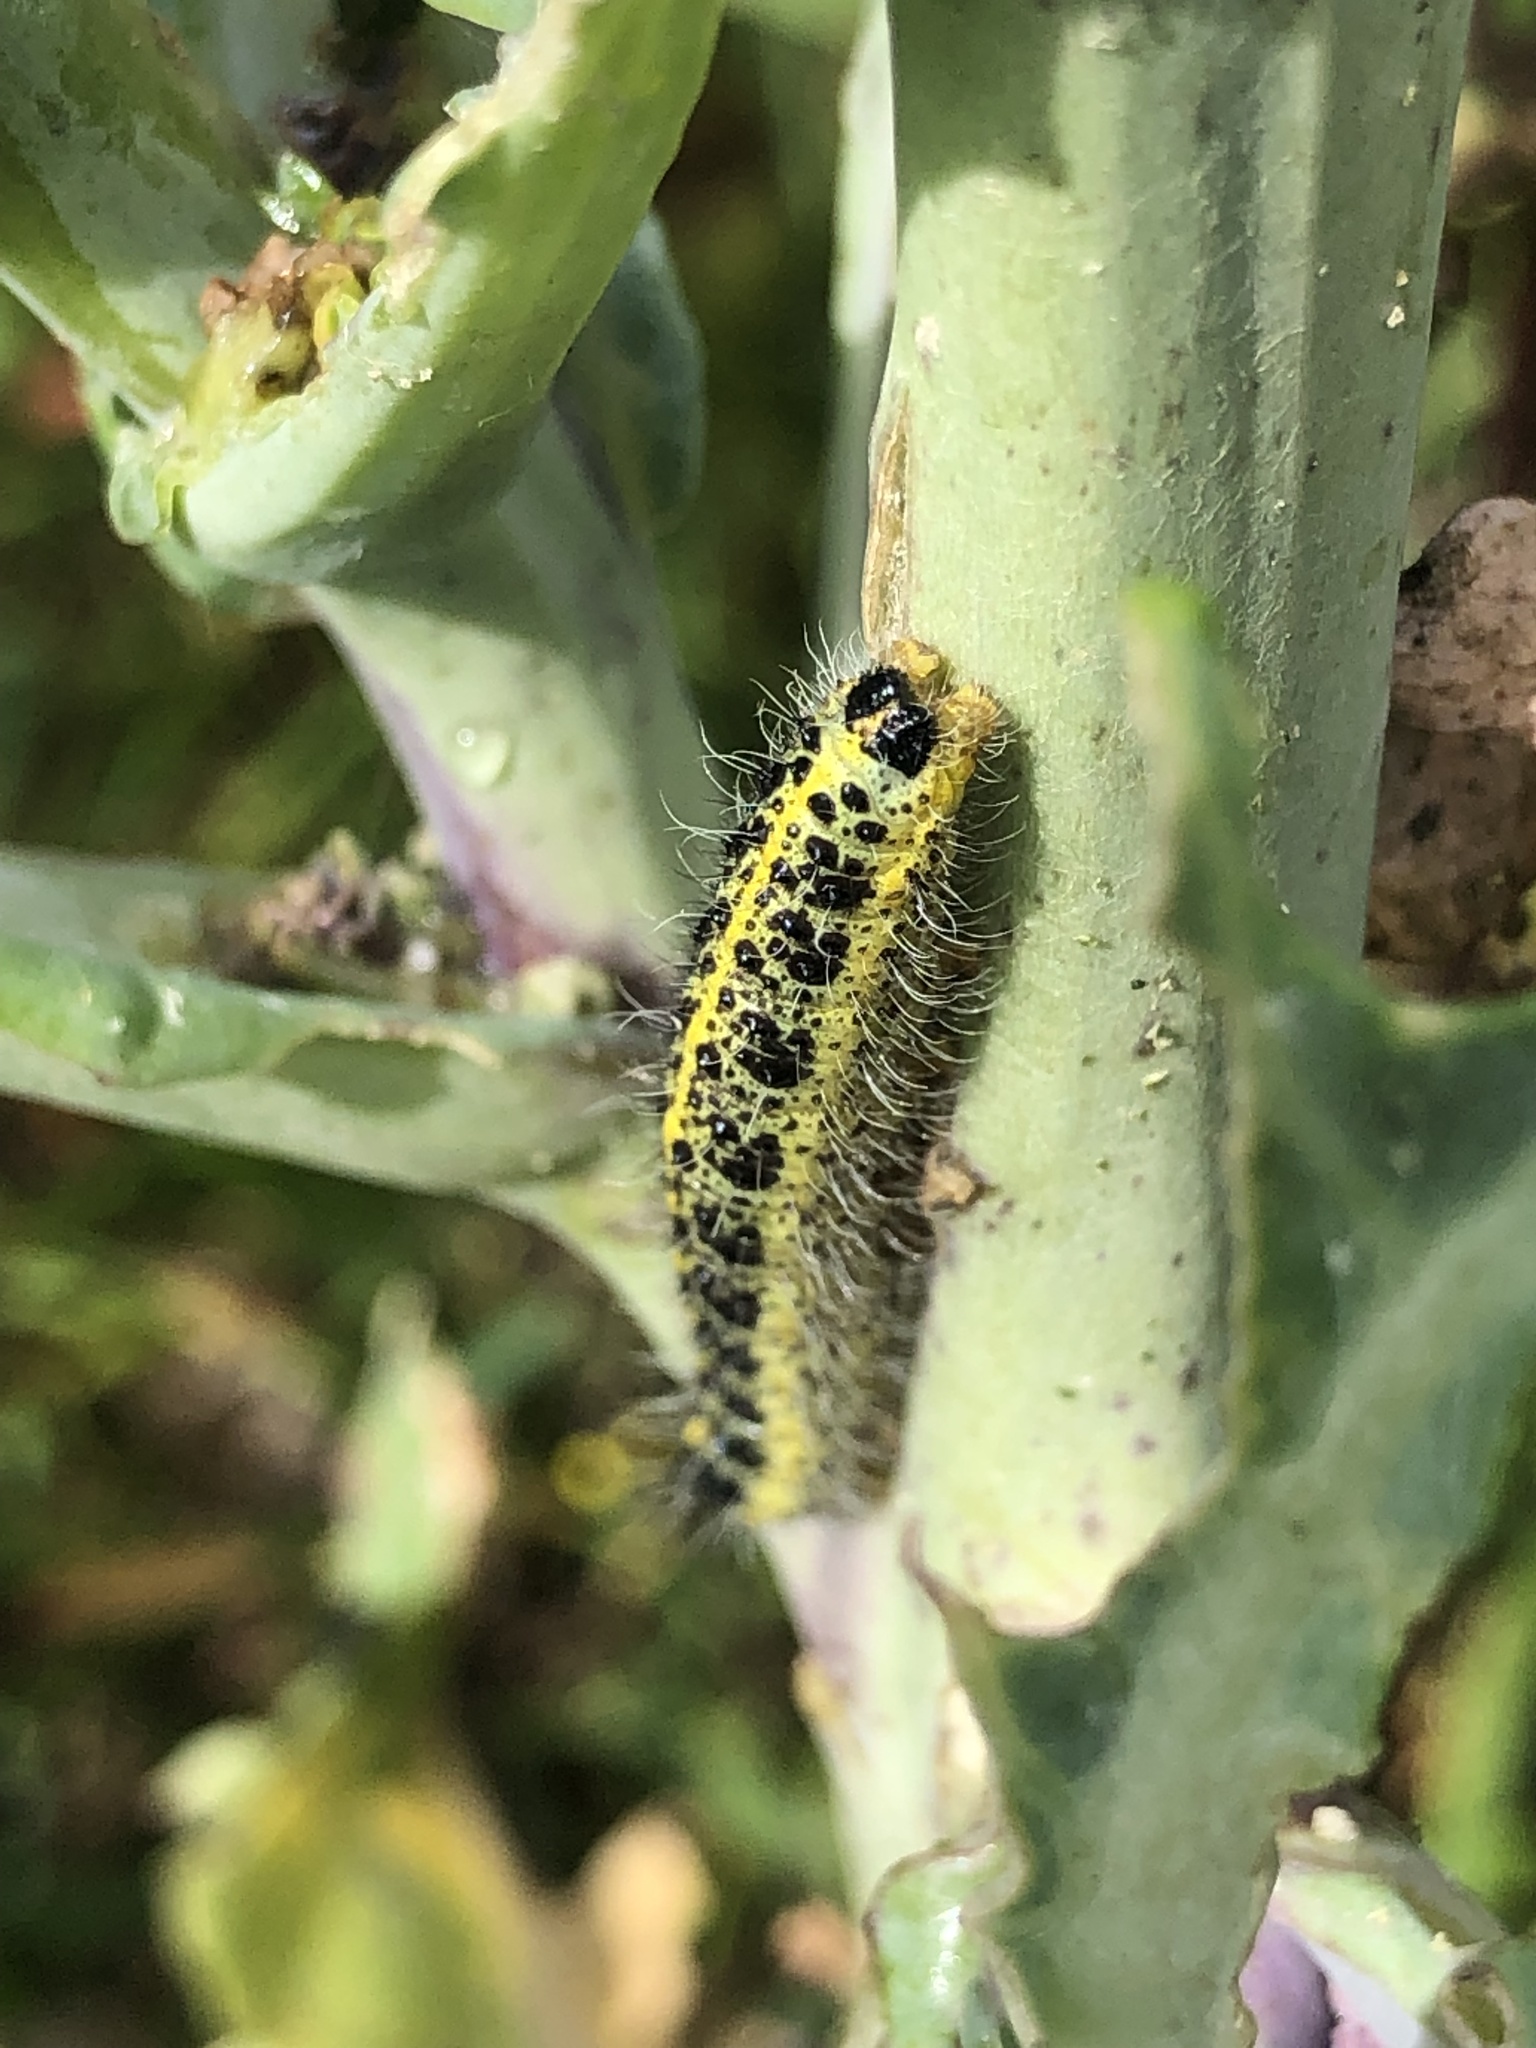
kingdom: Animalia
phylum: Arthropoda
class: Insecta
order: Lepidoptera
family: Pieridae
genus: Pieris
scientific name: Pieris brassicae
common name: Large white
